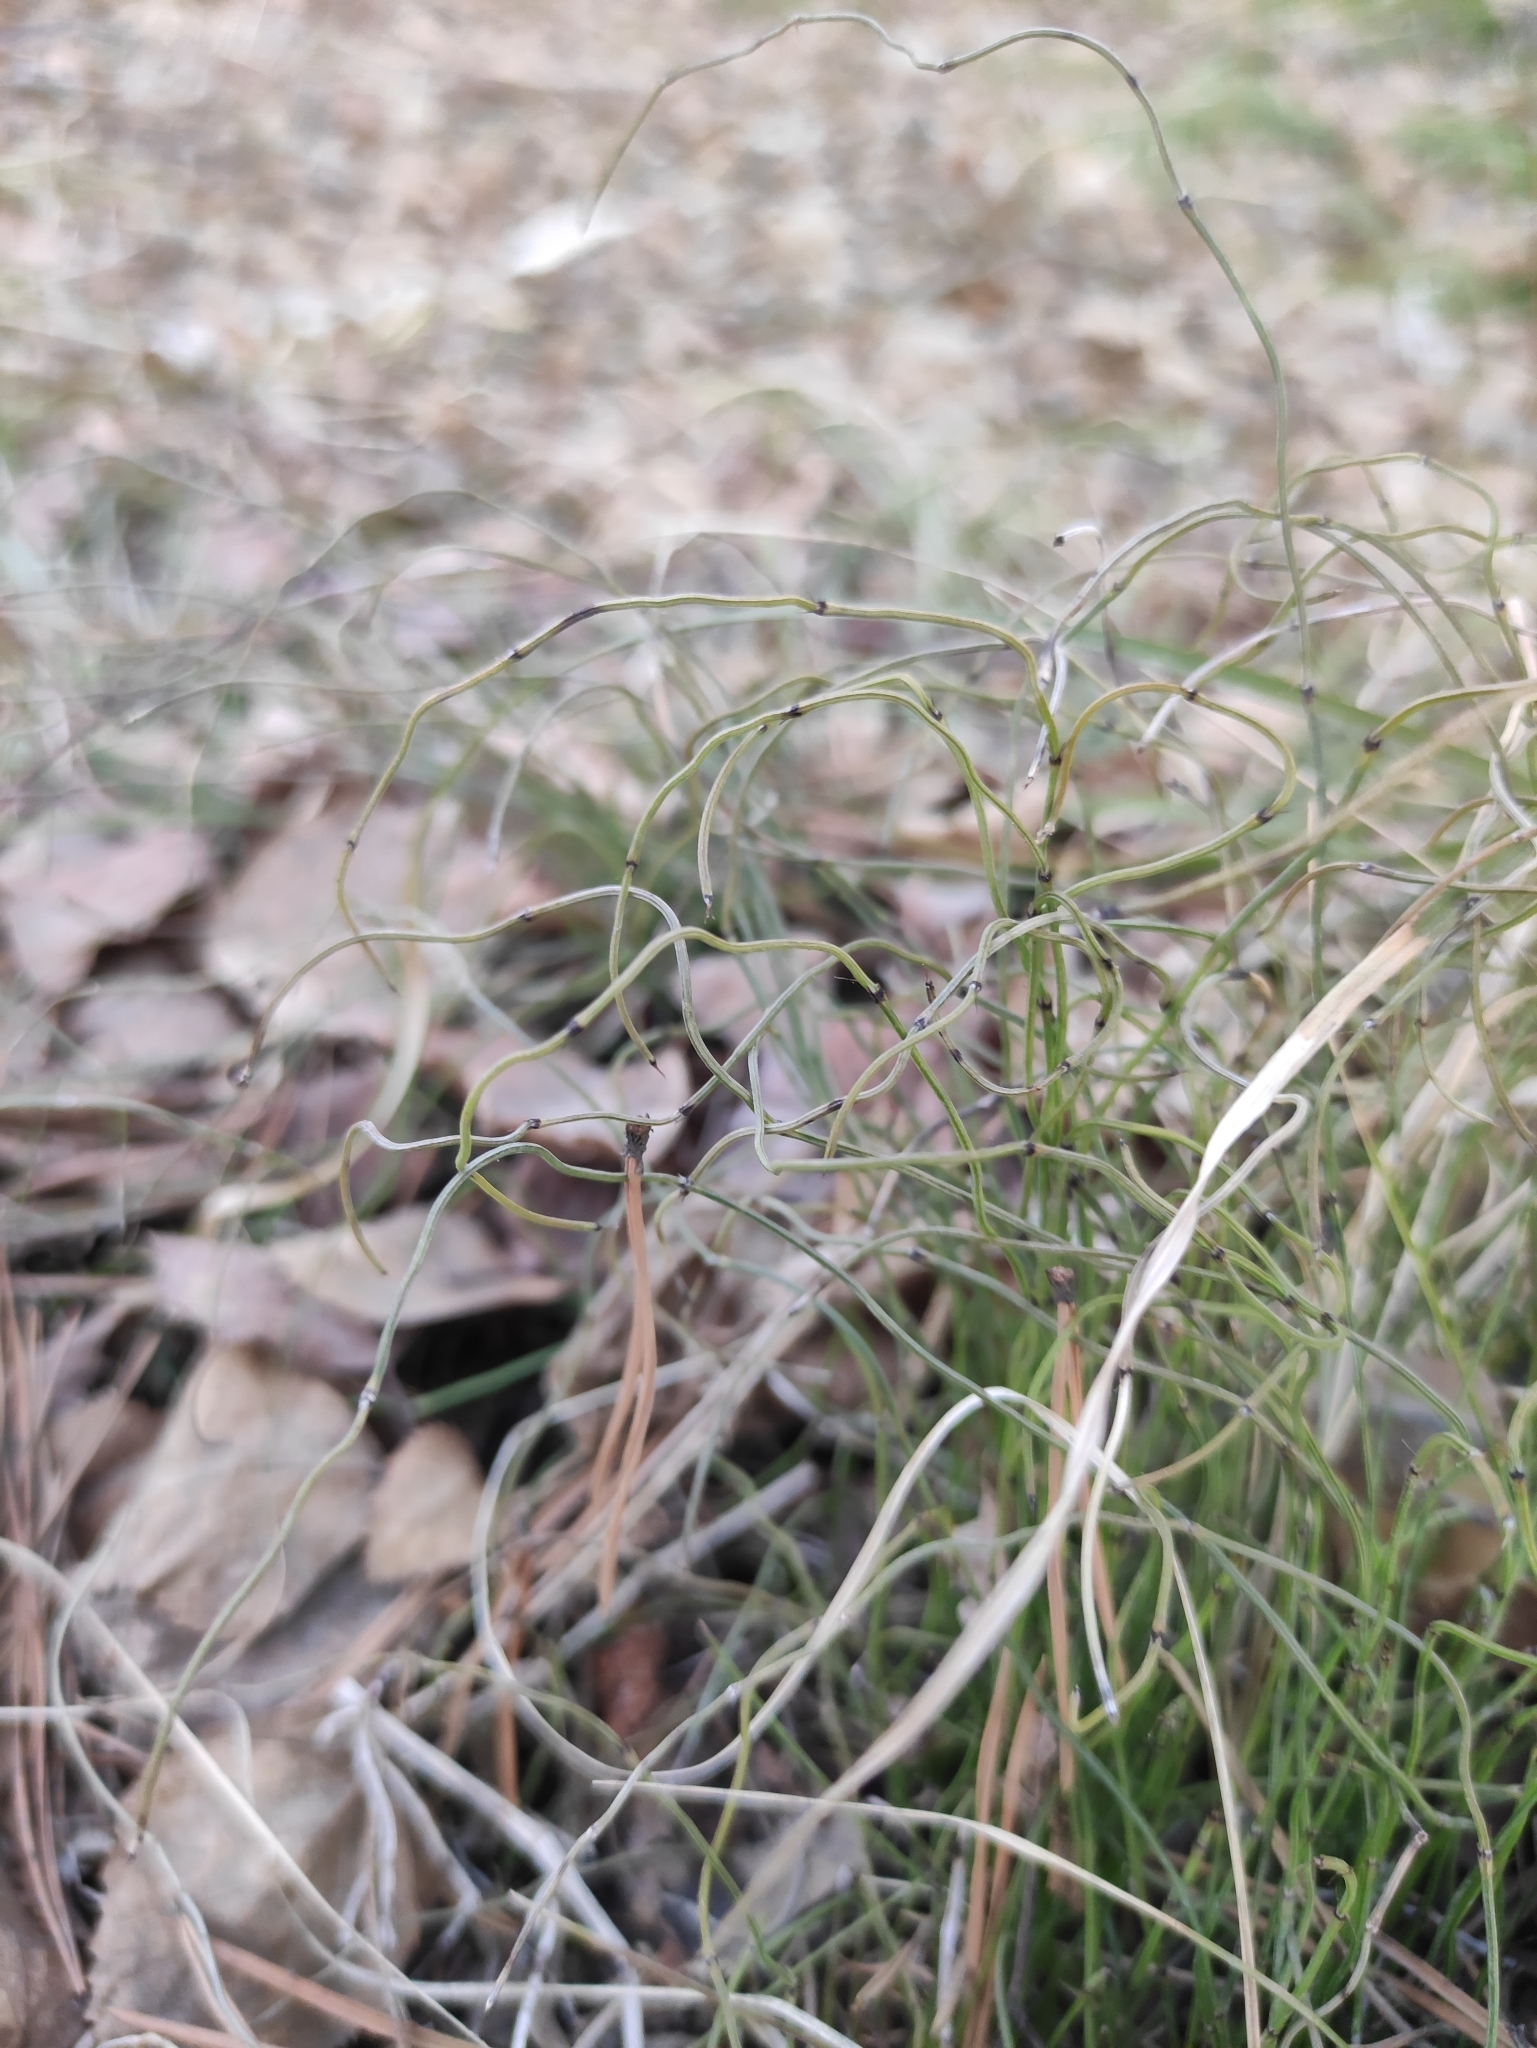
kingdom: Plantae
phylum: Tracheophyta
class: Polypodiopsida
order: Equisetales
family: Equisetaceae
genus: Equisetum
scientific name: Equisetum scirpoides
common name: Delicate horsetail
